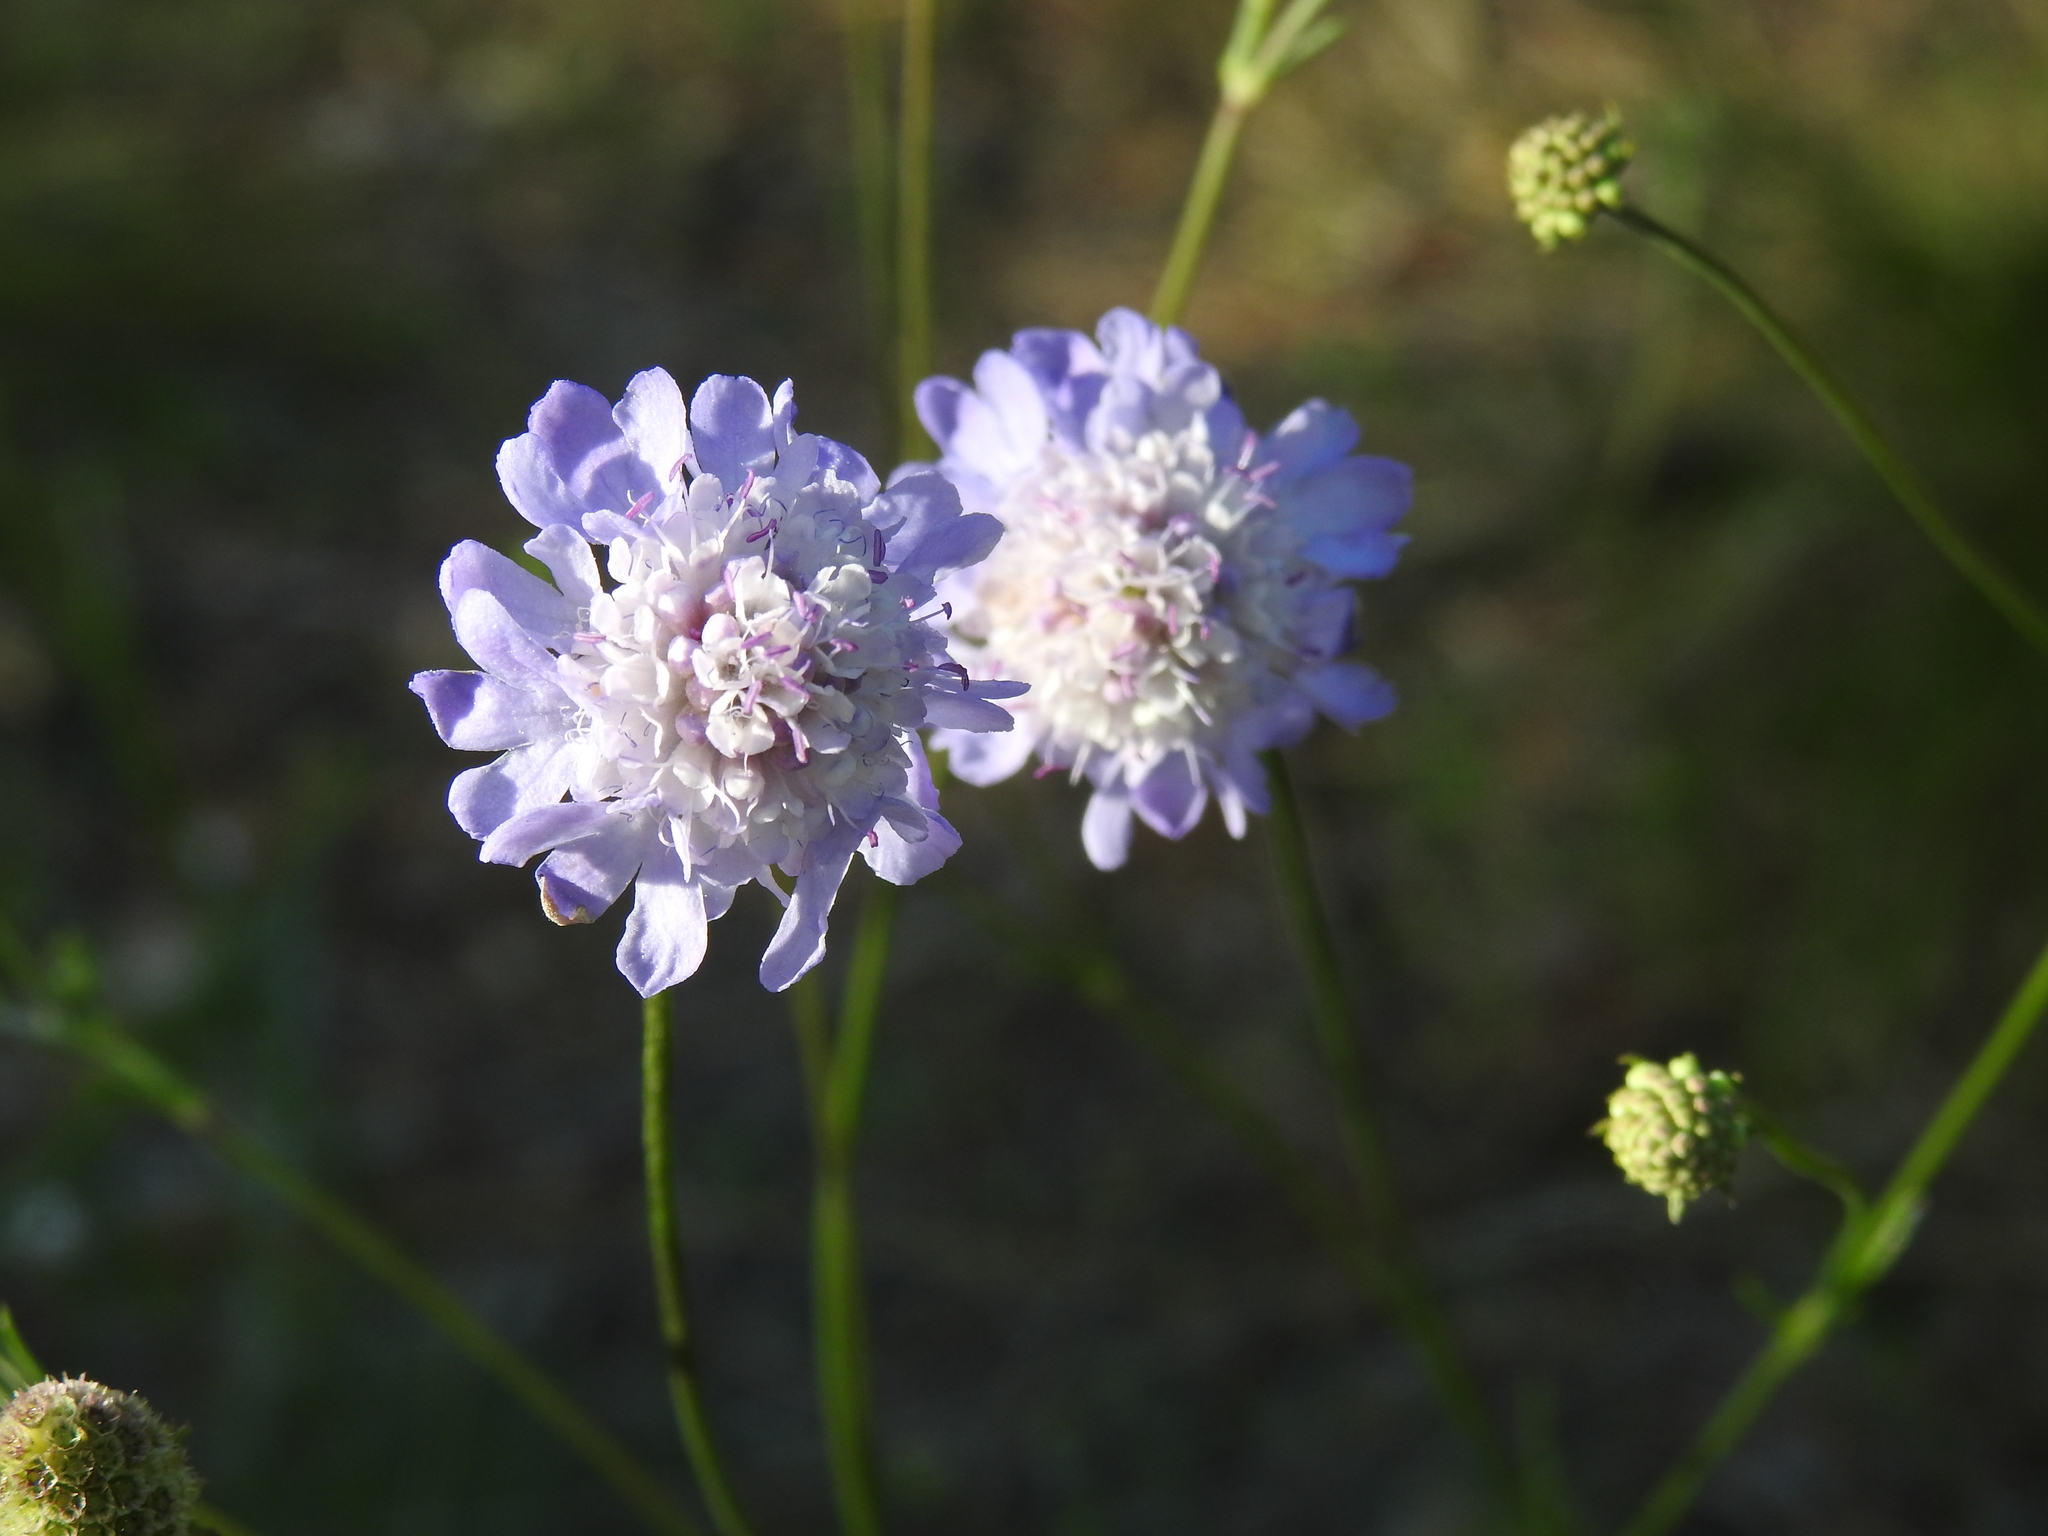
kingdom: Plantae
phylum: Tracheophyta
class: Magnoliopsida
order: Dipsacales
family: Caprifoliaceae
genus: Scabiosa
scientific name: Scabiosa columbaria
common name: Small scabious
